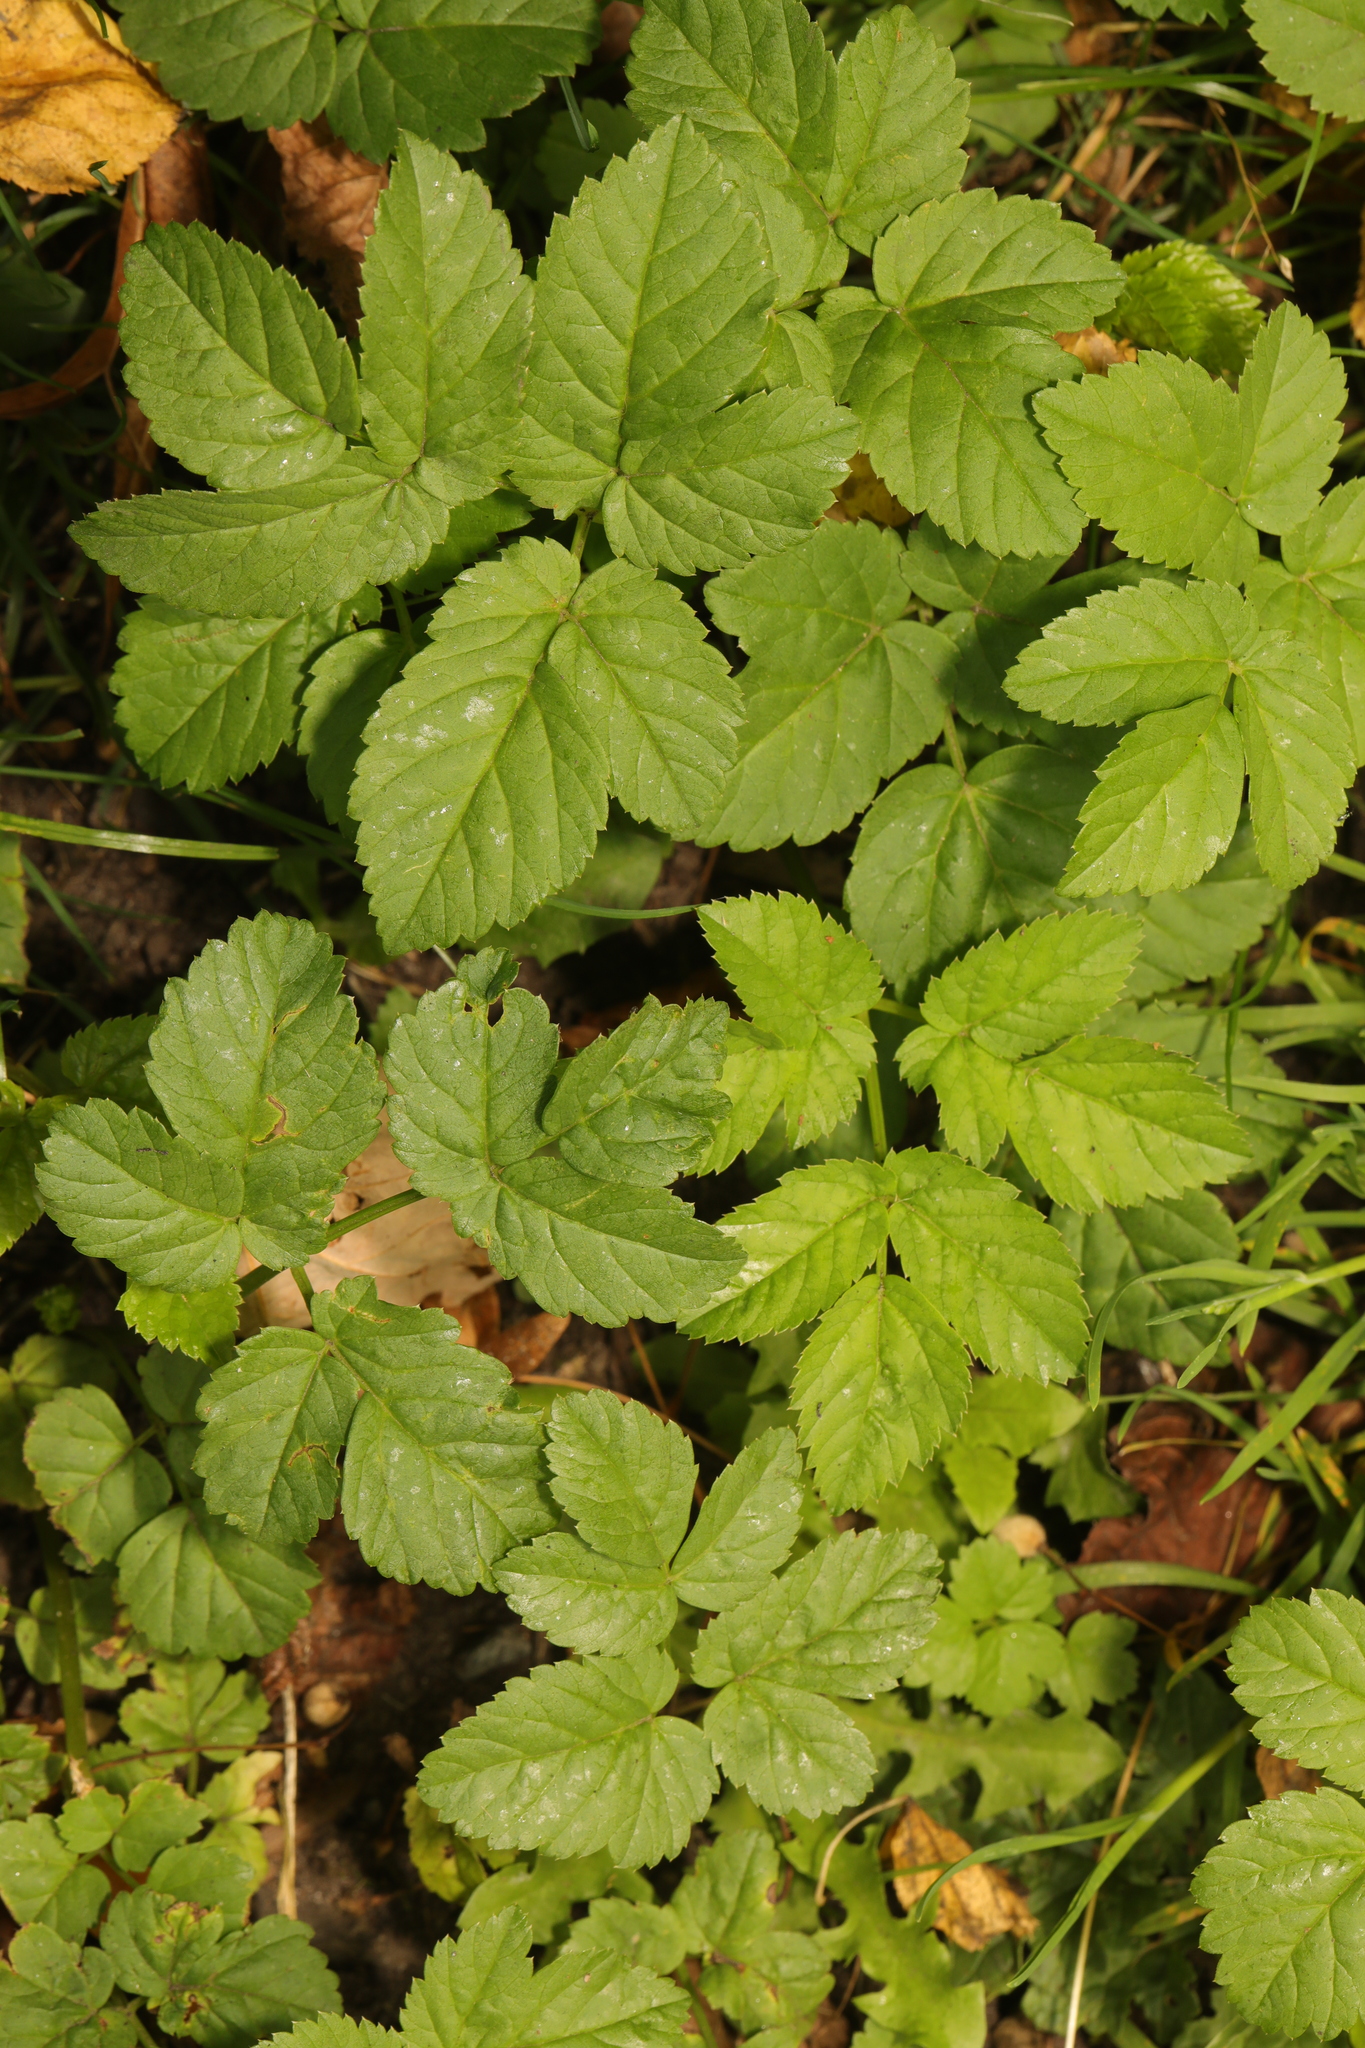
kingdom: Plantae
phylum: Tracheophyta
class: Magnoliopsida
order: Apiales
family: Apiaceae
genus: Aegopodium
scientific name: Aegopodium podagraria
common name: Ground-elder
